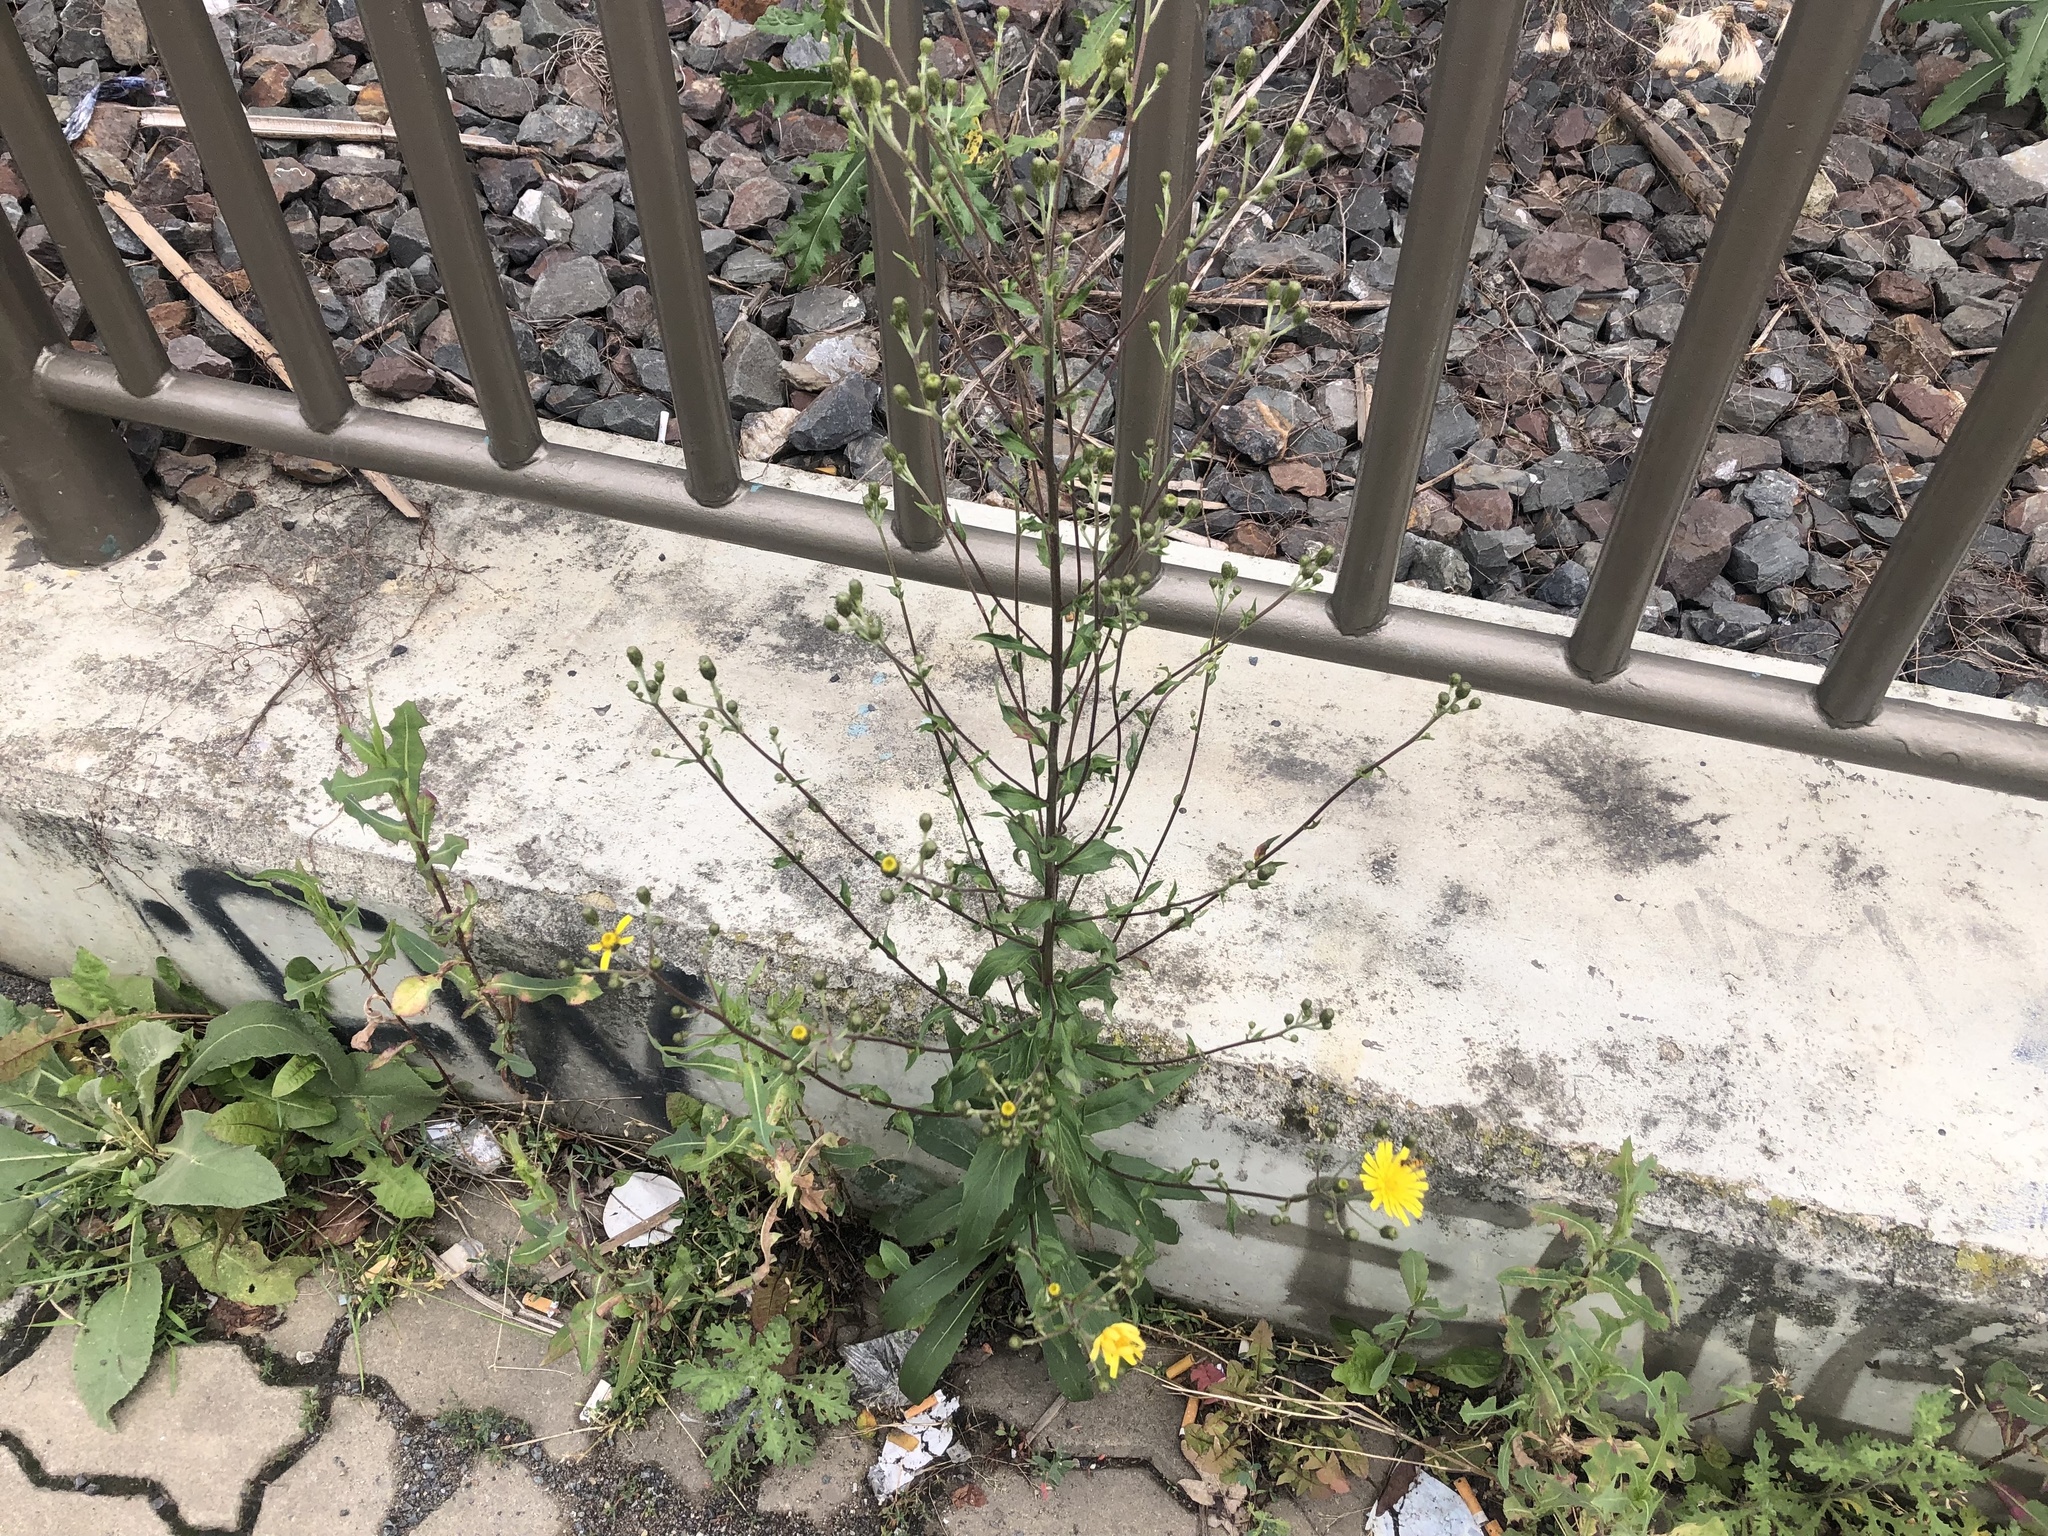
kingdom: Plantae
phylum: Tracheophyta
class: Magnoliopsida
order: Asterales
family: Asteraceae
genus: Hieracium
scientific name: Hieracium sabaudum
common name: New england hawkweed
